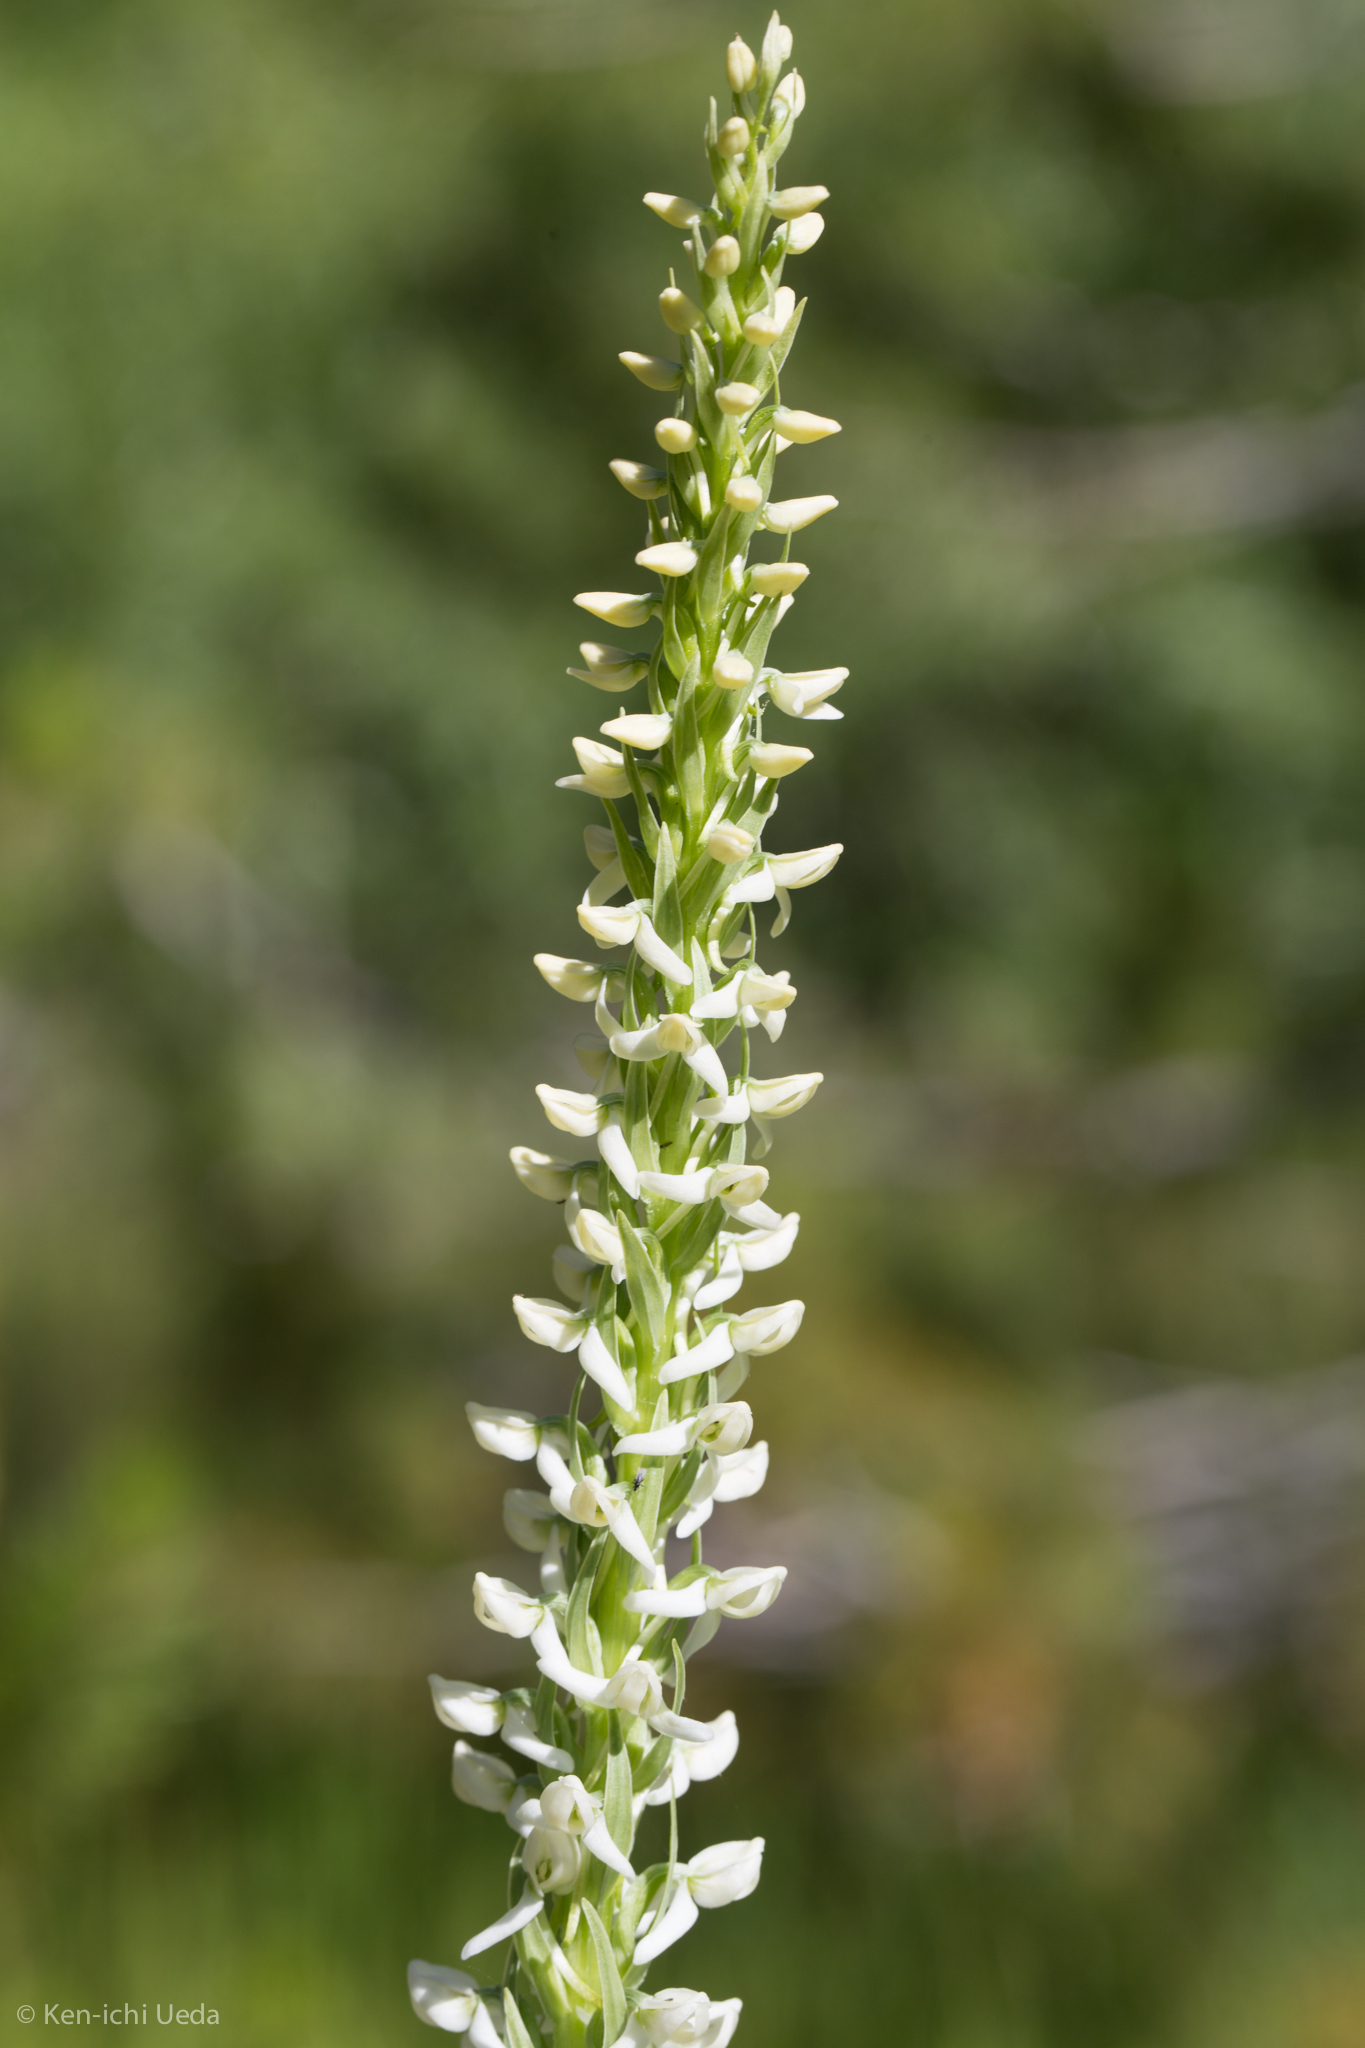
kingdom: Plantae
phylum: Tracheophyta
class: Liliopsida
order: Asparagales
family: Orchidaceae
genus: Platanthera
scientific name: Platanthera dilatata
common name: Bog candles
